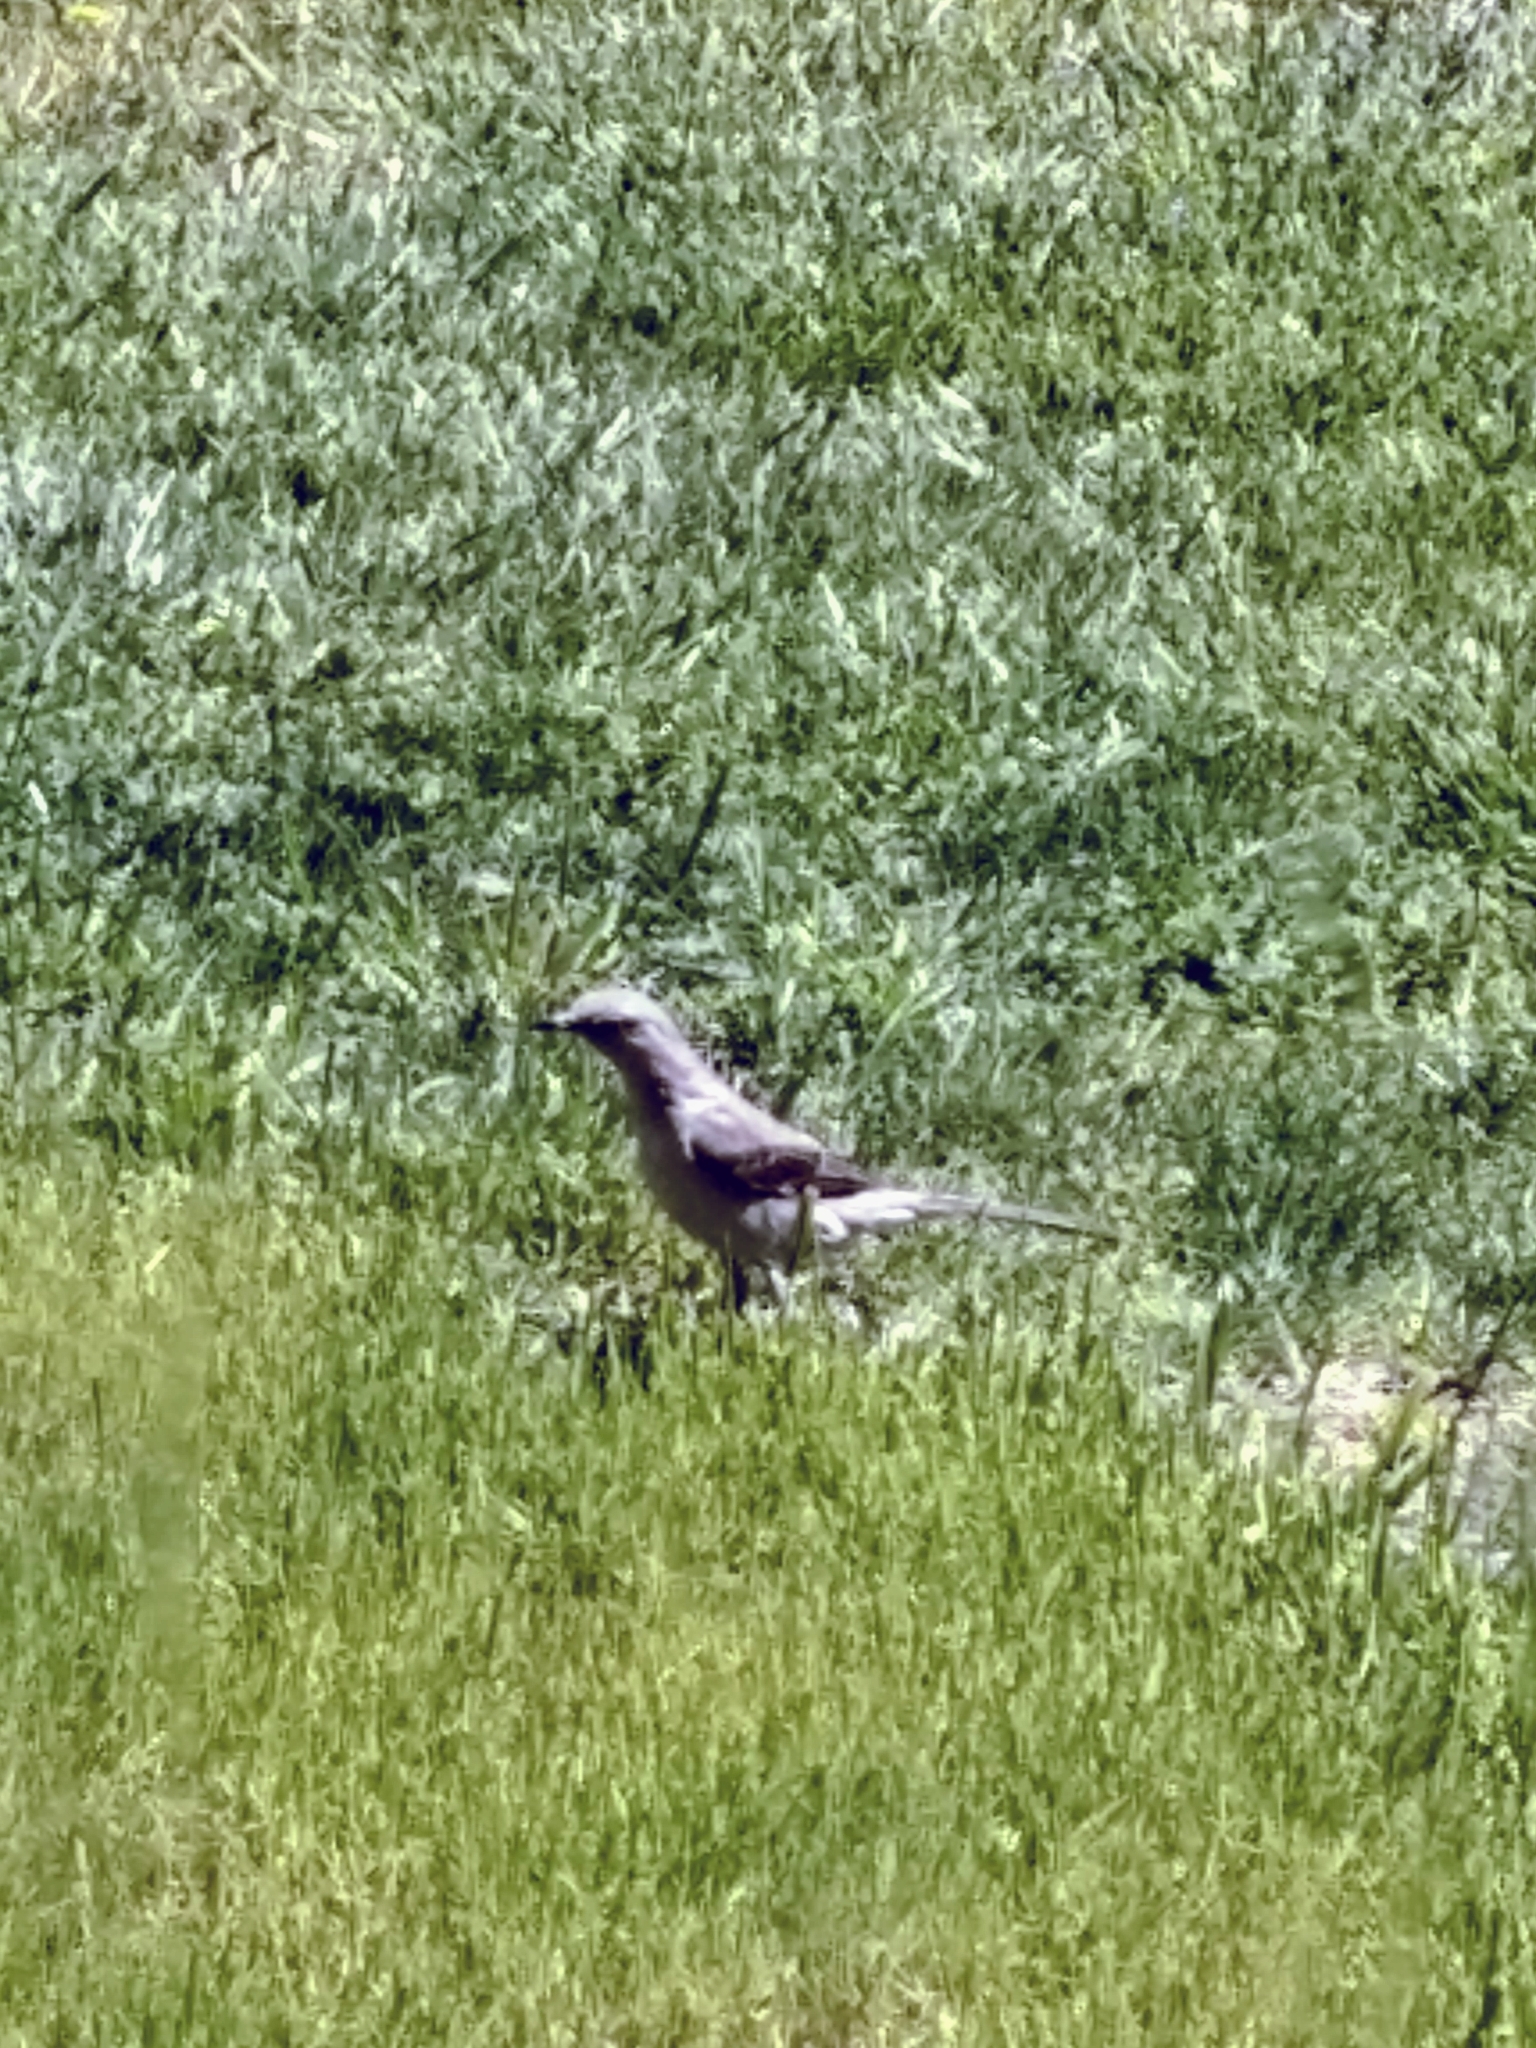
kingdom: Animalia
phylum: Chordata
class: Aves
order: Passeriformes
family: Mimidae
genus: Mimus
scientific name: Mimus polyglottos
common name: Northern mockingbird
